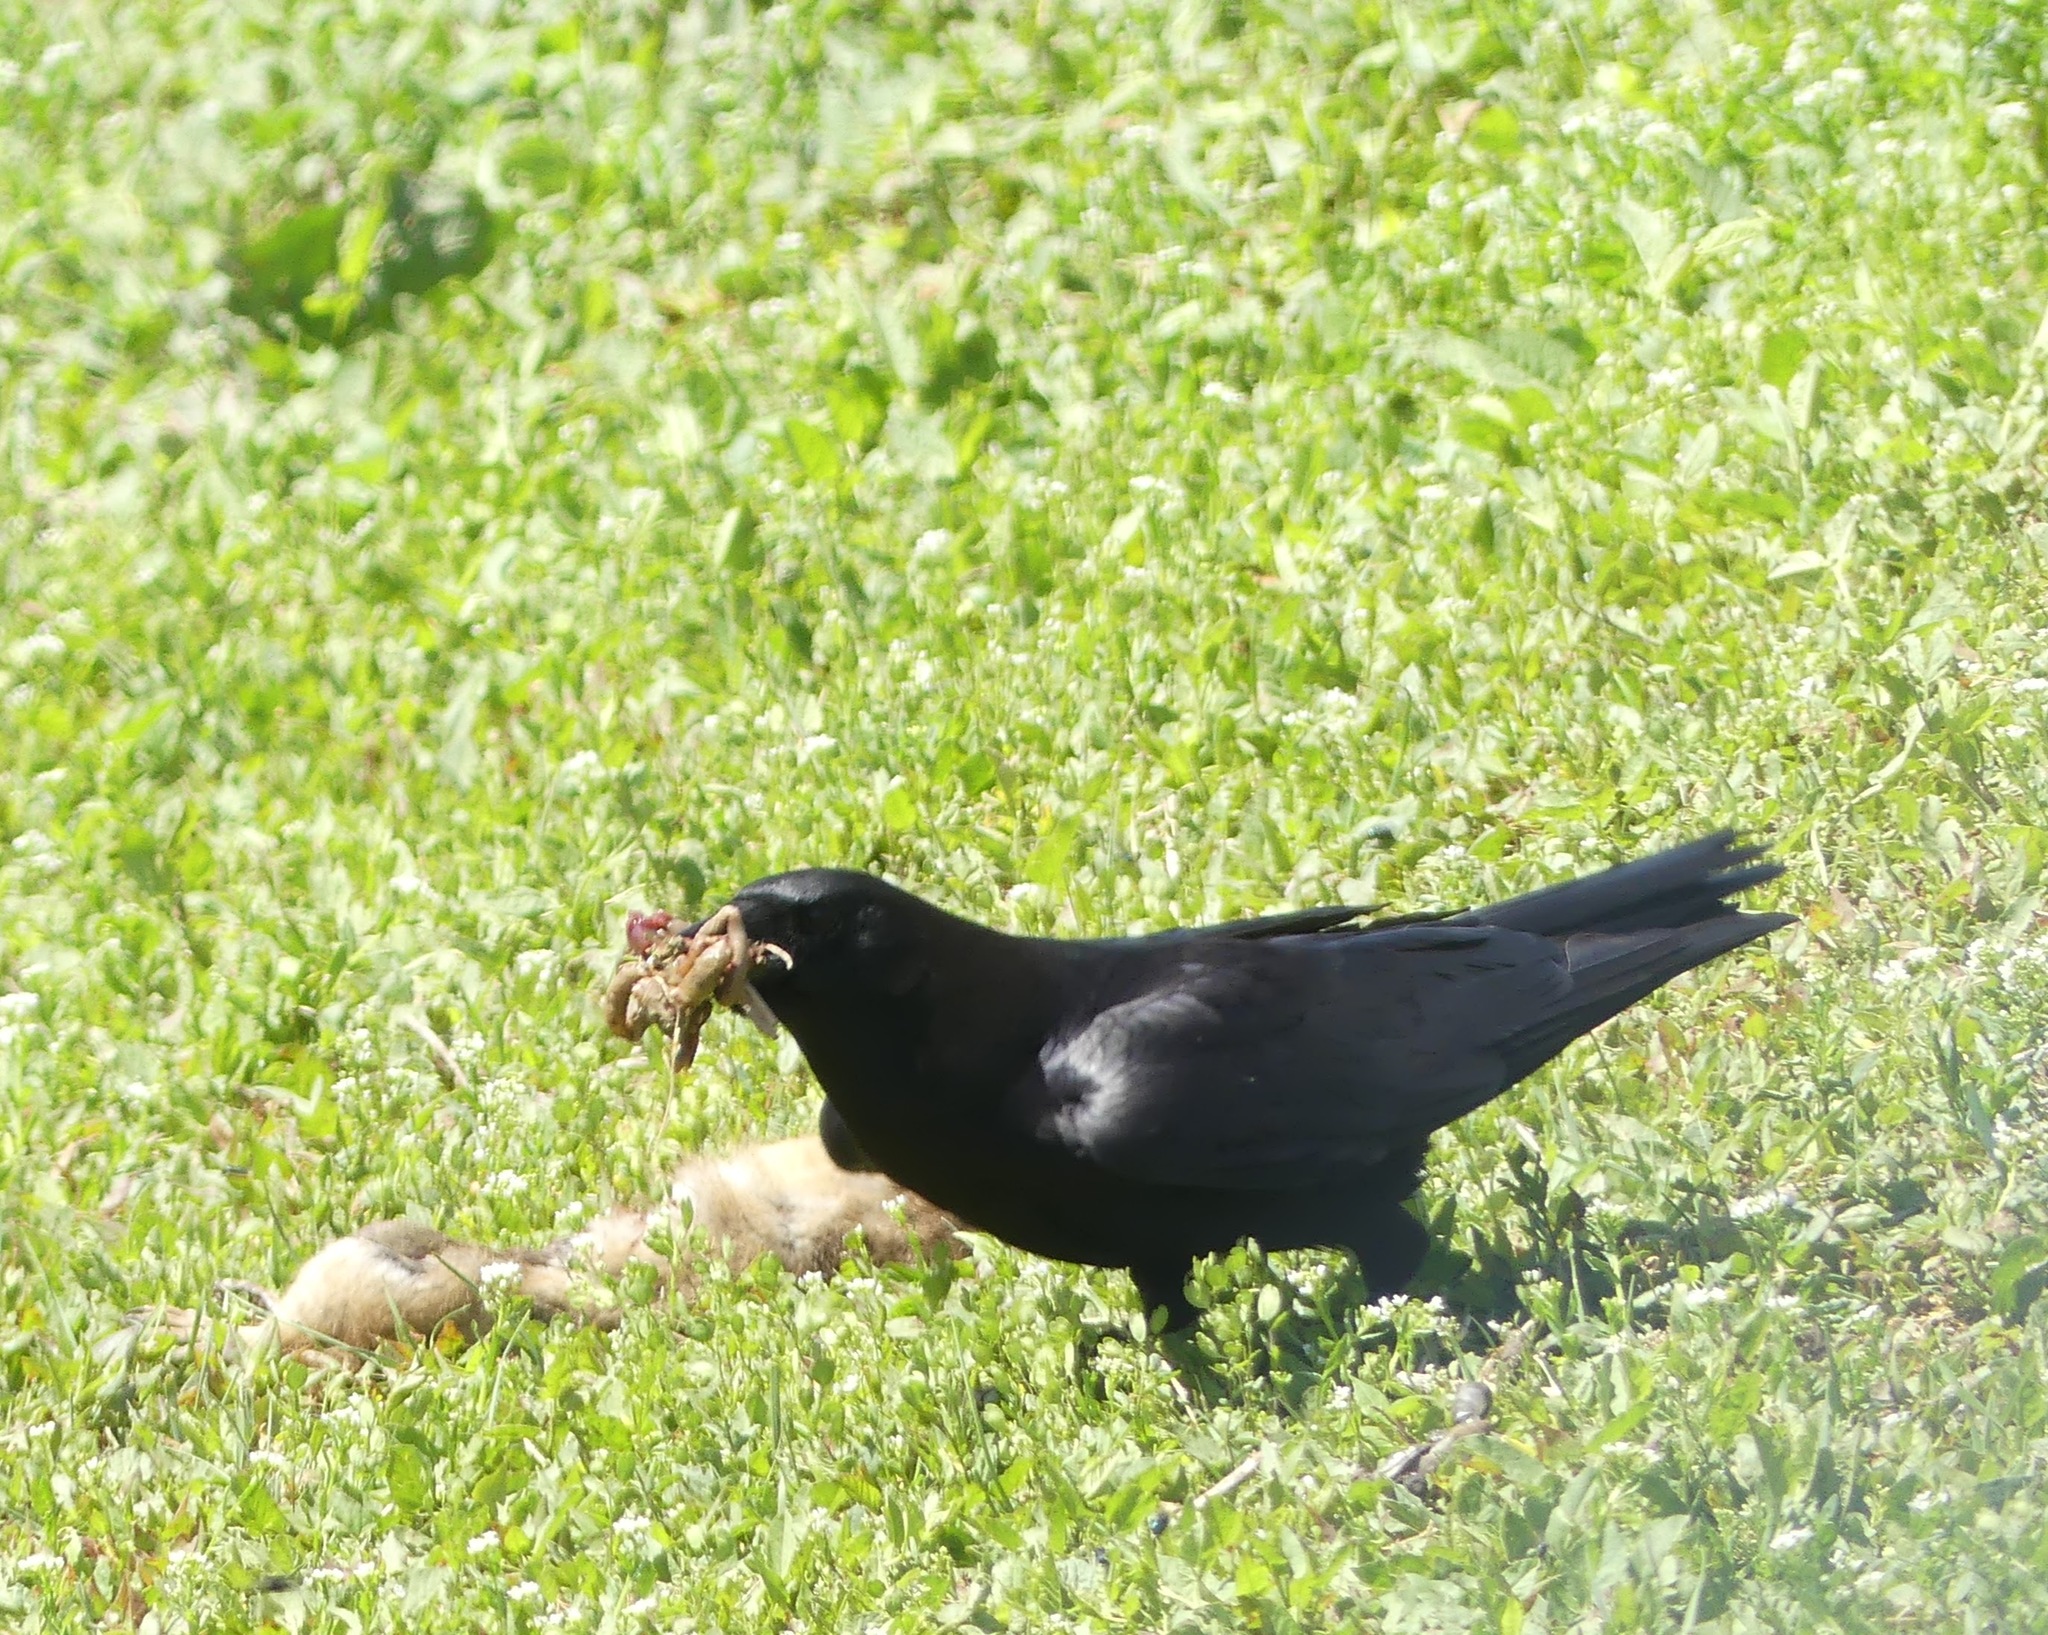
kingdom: Animalia
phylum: Chordata
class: Aves
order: Passeriformes
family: Corvidae
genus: Corvus
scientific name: Corvus brachyrhynchos
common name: American crow
